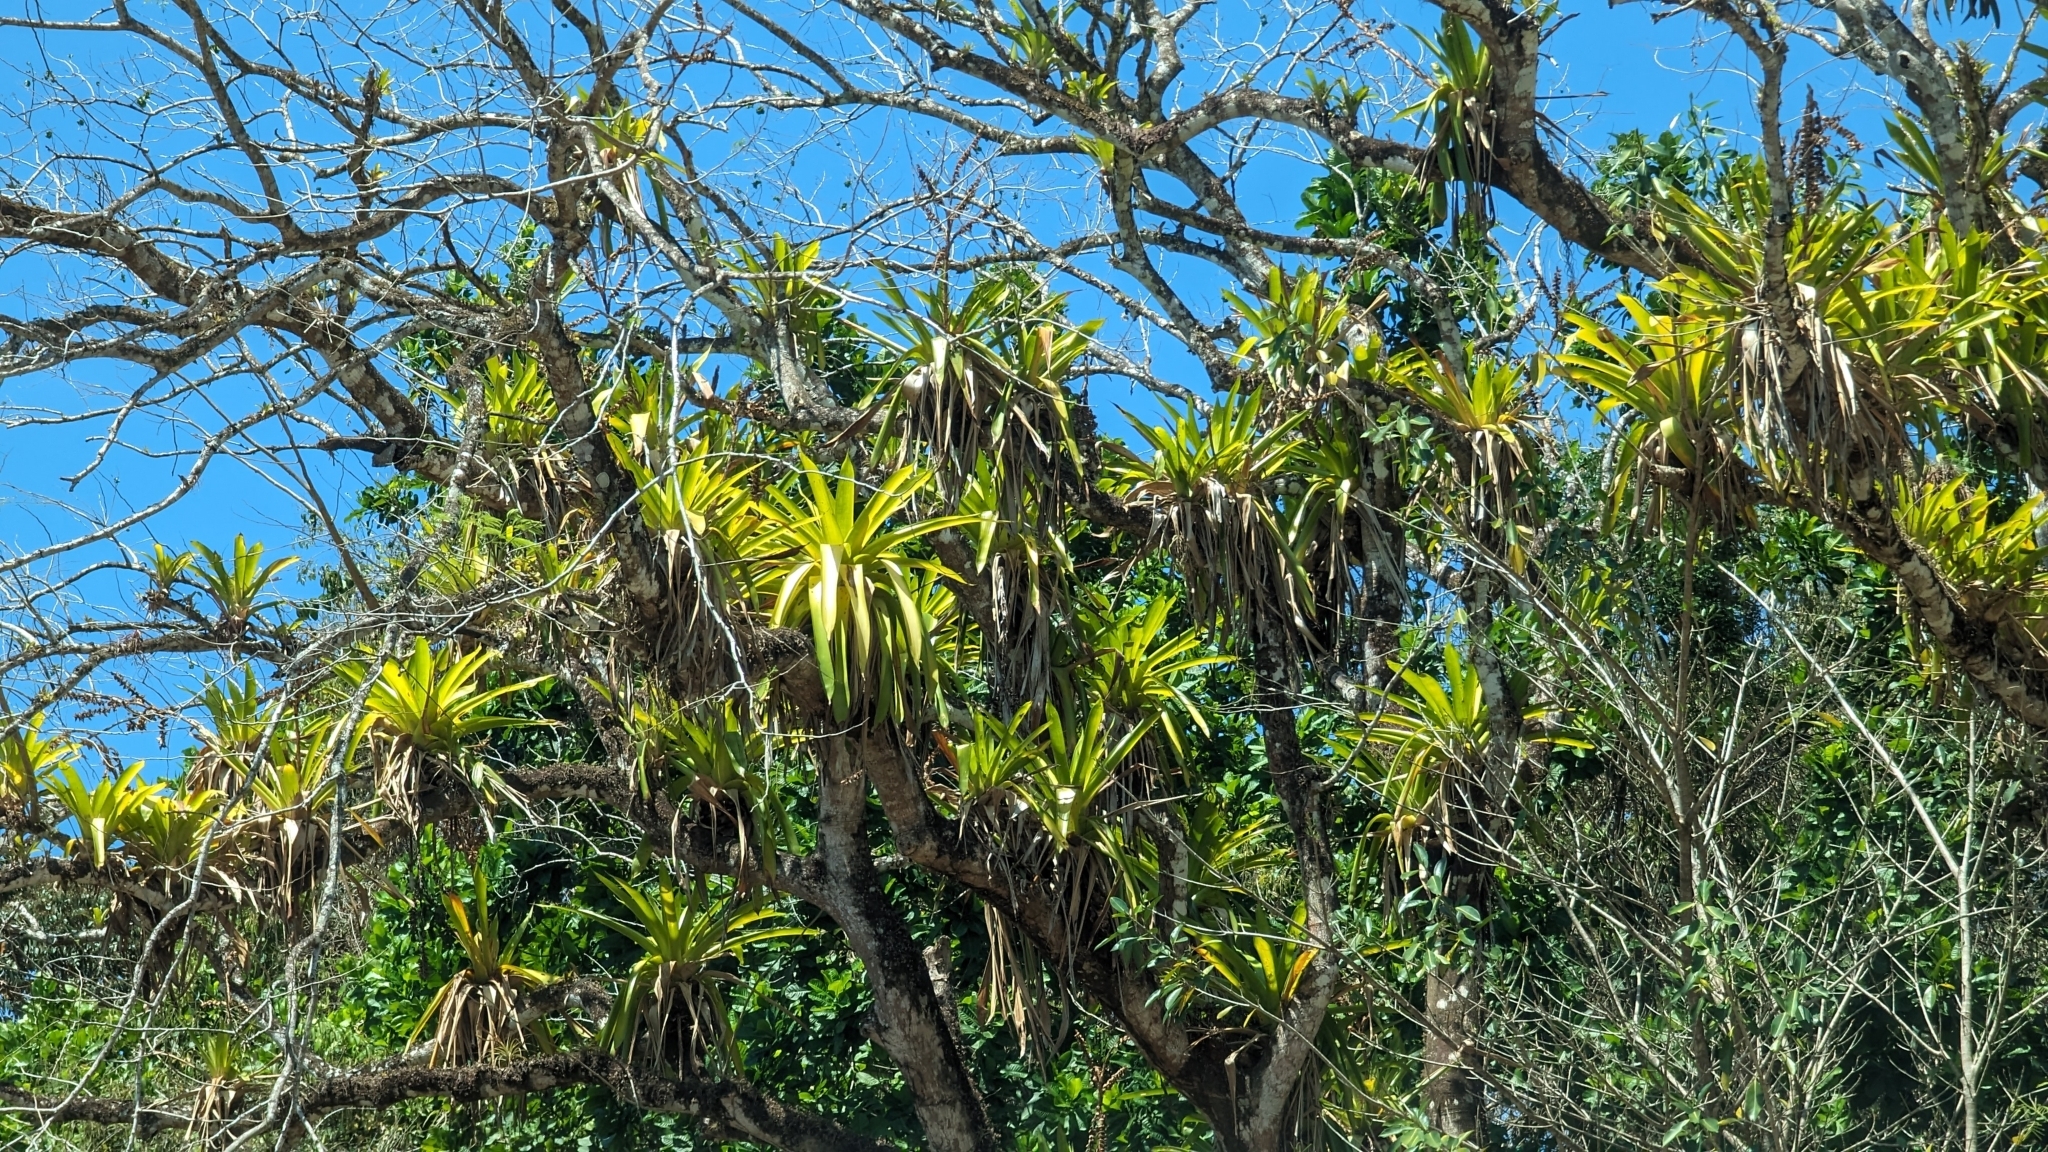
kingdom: Plantae
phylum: Tracheophyta
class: Liliopsida
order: Poales
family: Bromeliaceae
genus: Werauhia
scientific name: Werauhia sanguinolenta
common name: Bromeliad
